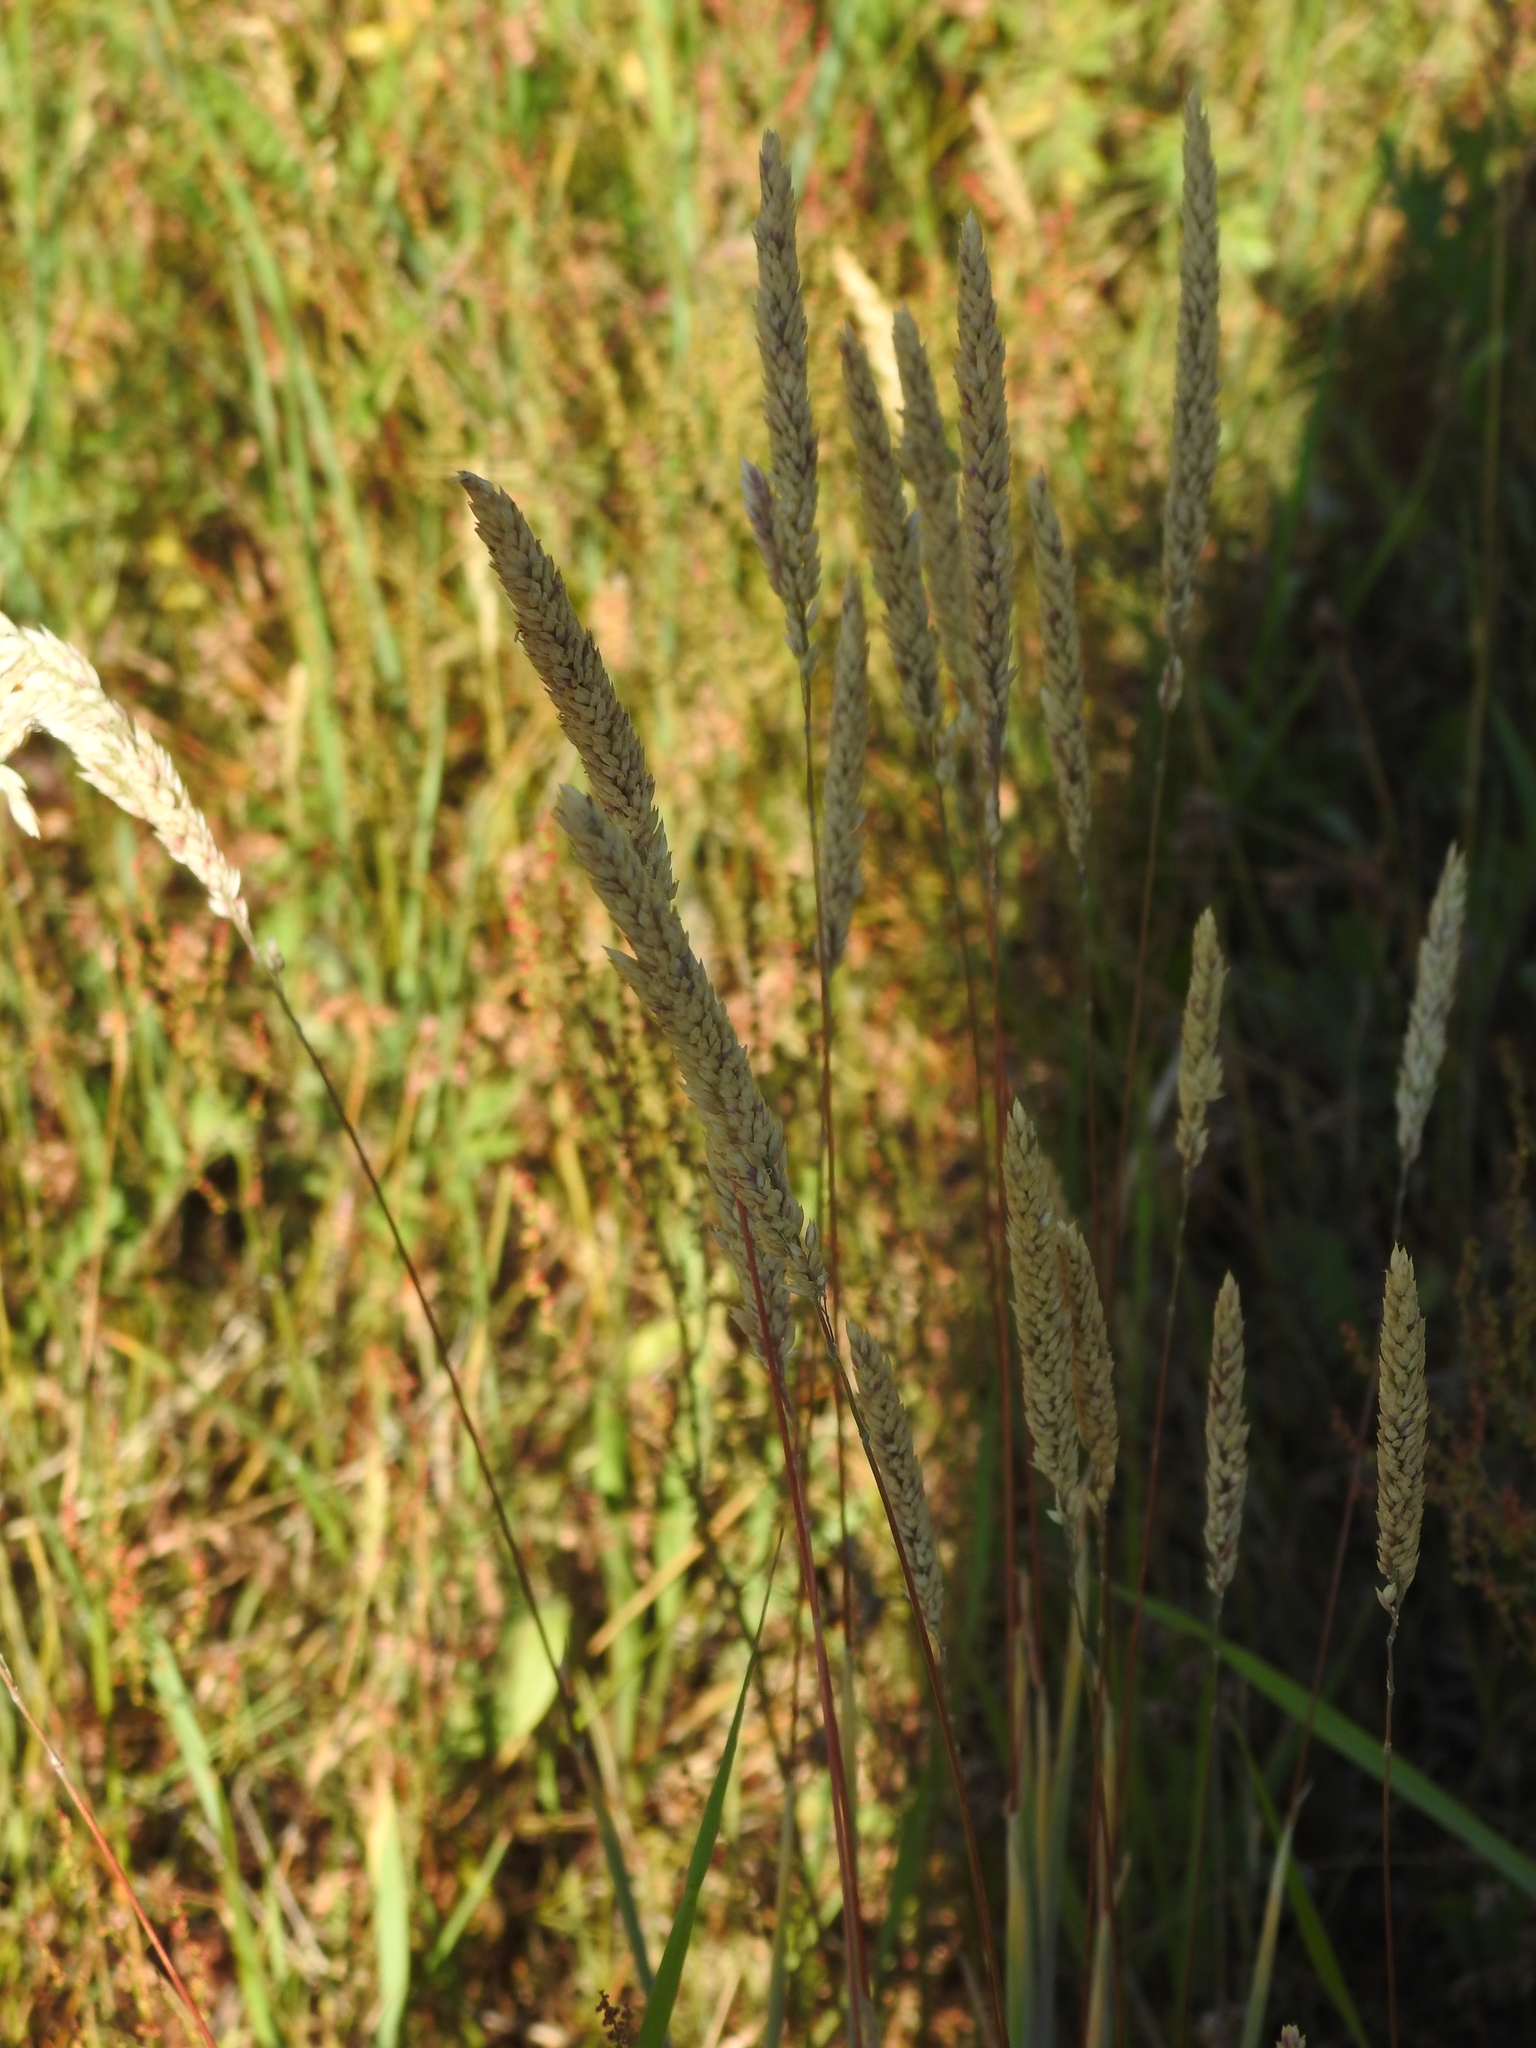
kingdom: Plantae
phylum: Tracheophyta
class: Liliopsida
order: Poales
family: Poaceae
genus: Holcus
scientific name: Holcus lanatus
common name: Yorkshire-fog
